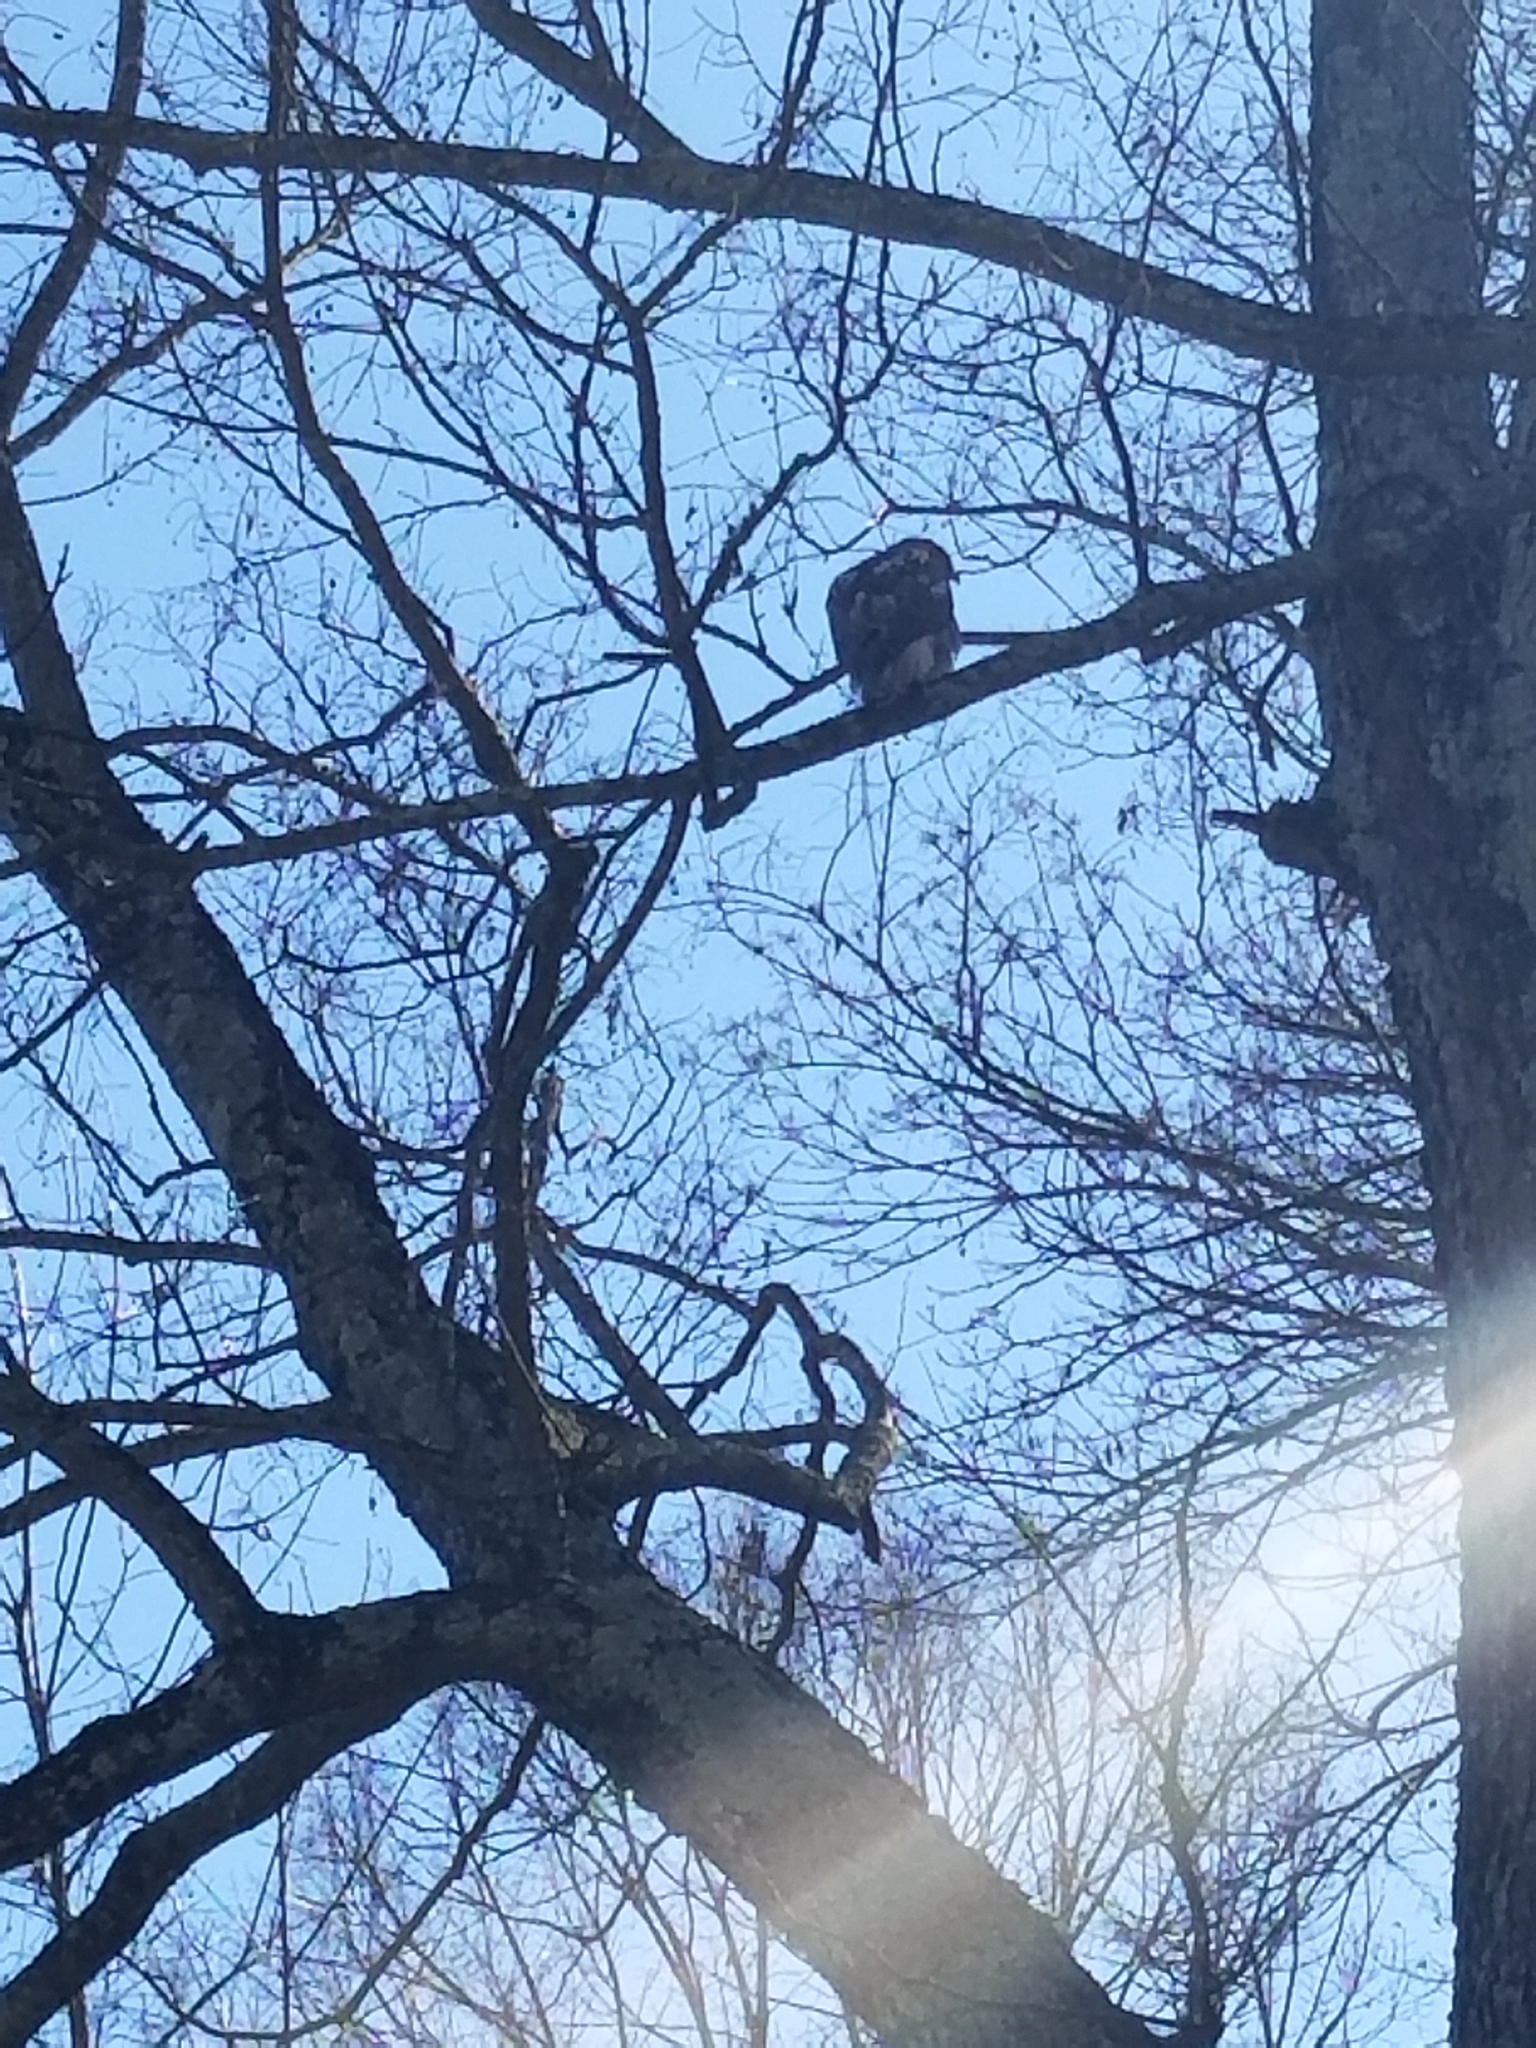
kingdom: Animalia
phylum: Chordata
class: Aves
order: Accipitriformes
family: Accipitridae
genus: Buteo
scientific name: Buteo jamaicensis
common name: Red-tailed hawk
